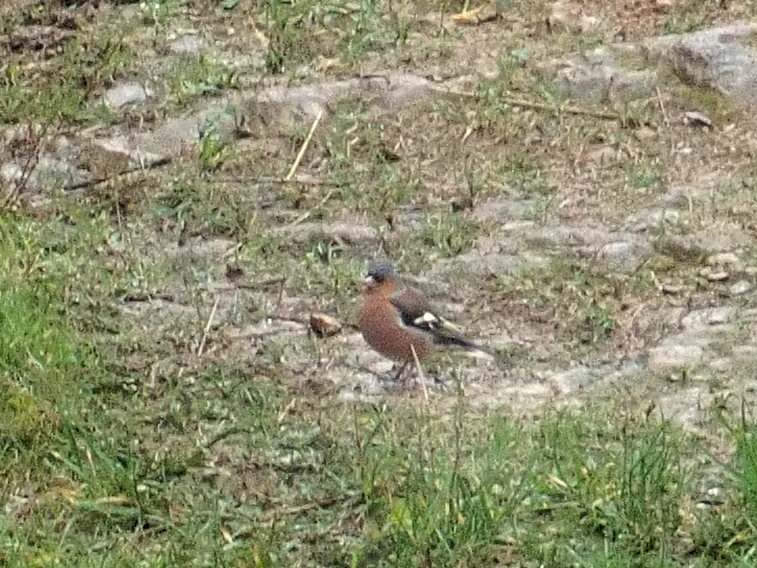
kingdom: Animalia
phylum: Chordata
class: Aves
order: Passeriformes
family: Fringillidae
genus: Fringilla
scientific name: Fringilla coelebs
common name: Common chaffinch
